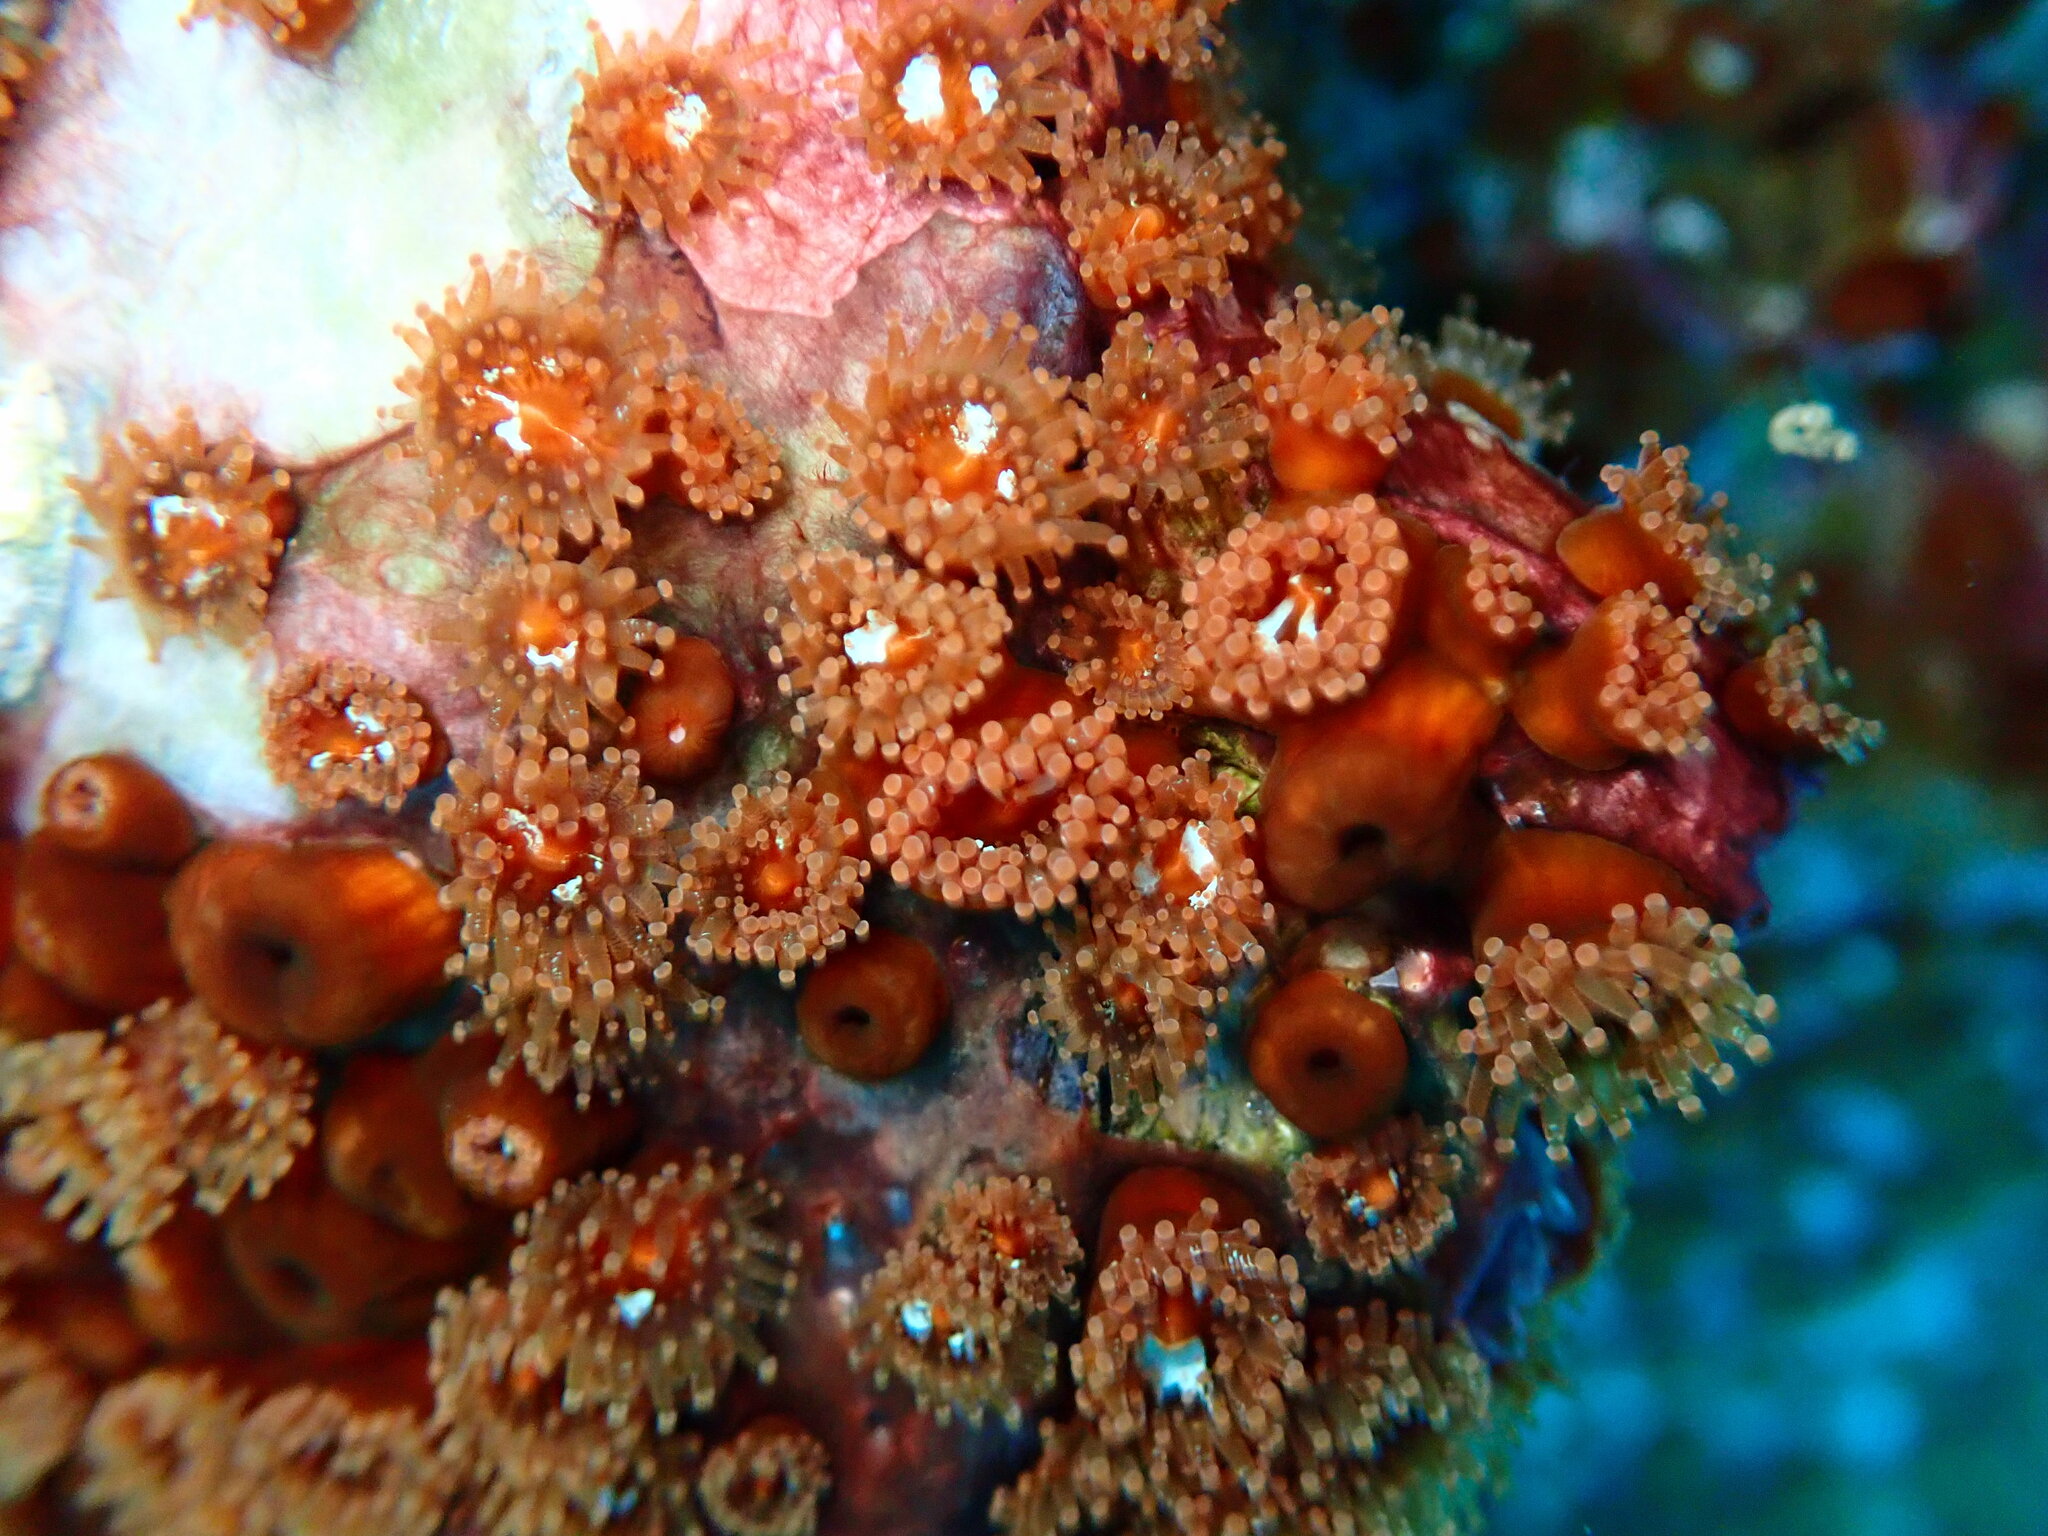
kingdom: Animalia
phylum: Cnidaria
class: Anthozoa
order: Corallimorpharia
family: Corallimorphidae
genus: Corynactis
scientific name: Corynactis viridis
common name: Jewel anemone
